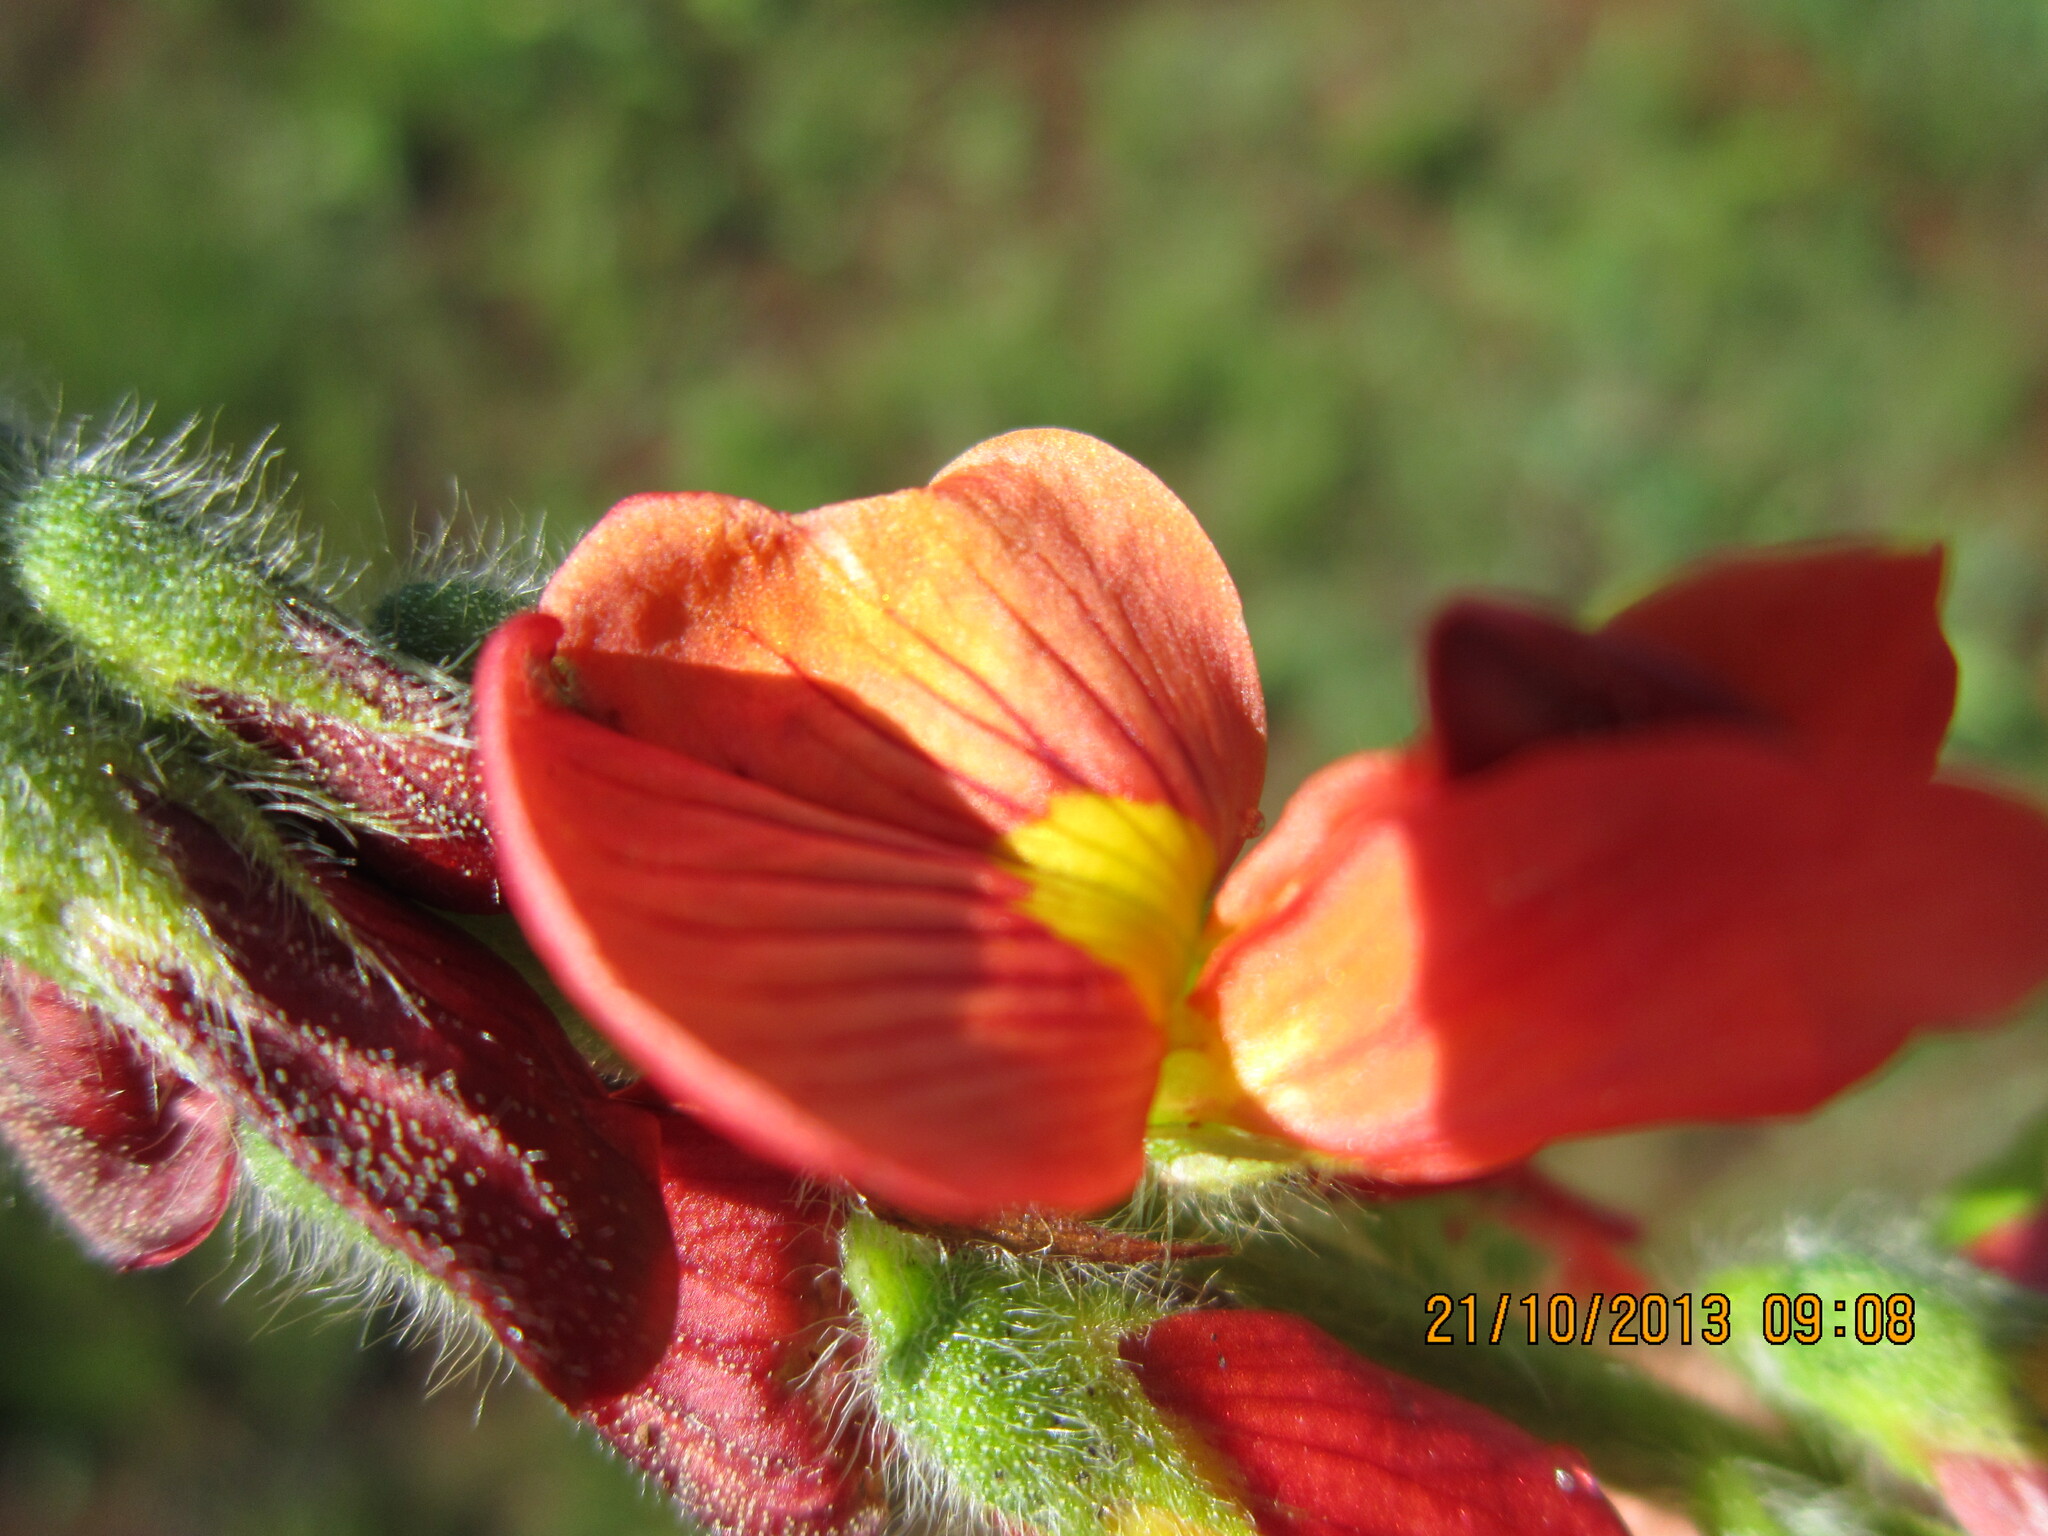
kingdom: Plantae
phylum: Tracheophyta
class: Magnoliopsida
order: Fabales
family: Fabaceae
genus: Eriosema
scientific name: Eriosema distinctum
